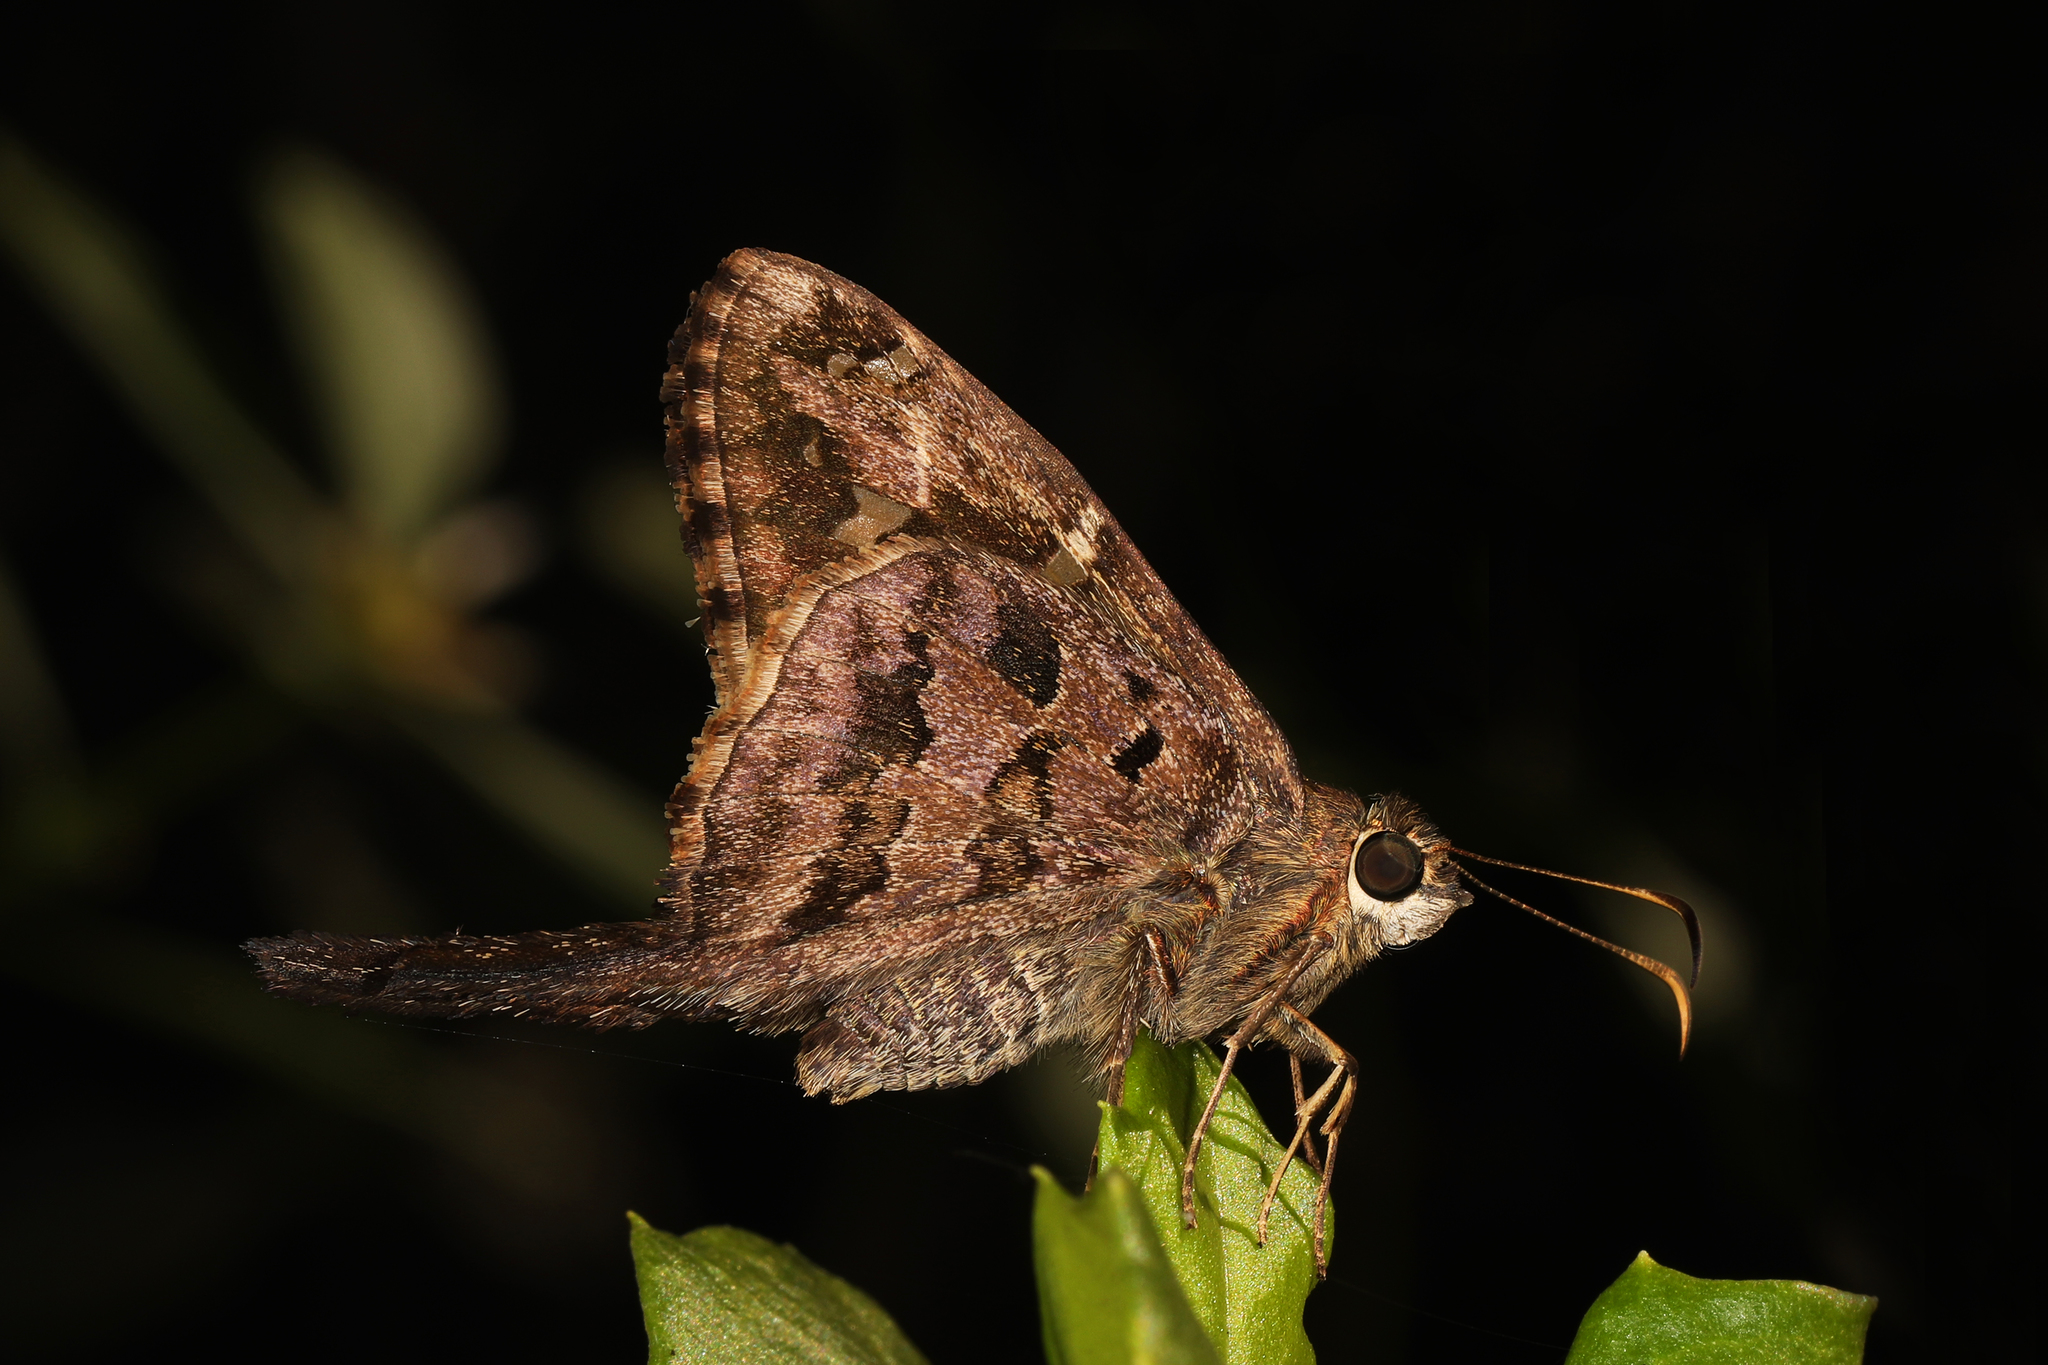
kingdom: Animalia
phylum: Arthropoda
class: Insecta
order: Lepidoptera
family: Hesperiidae
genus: Thorybes
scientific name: Thorybes
